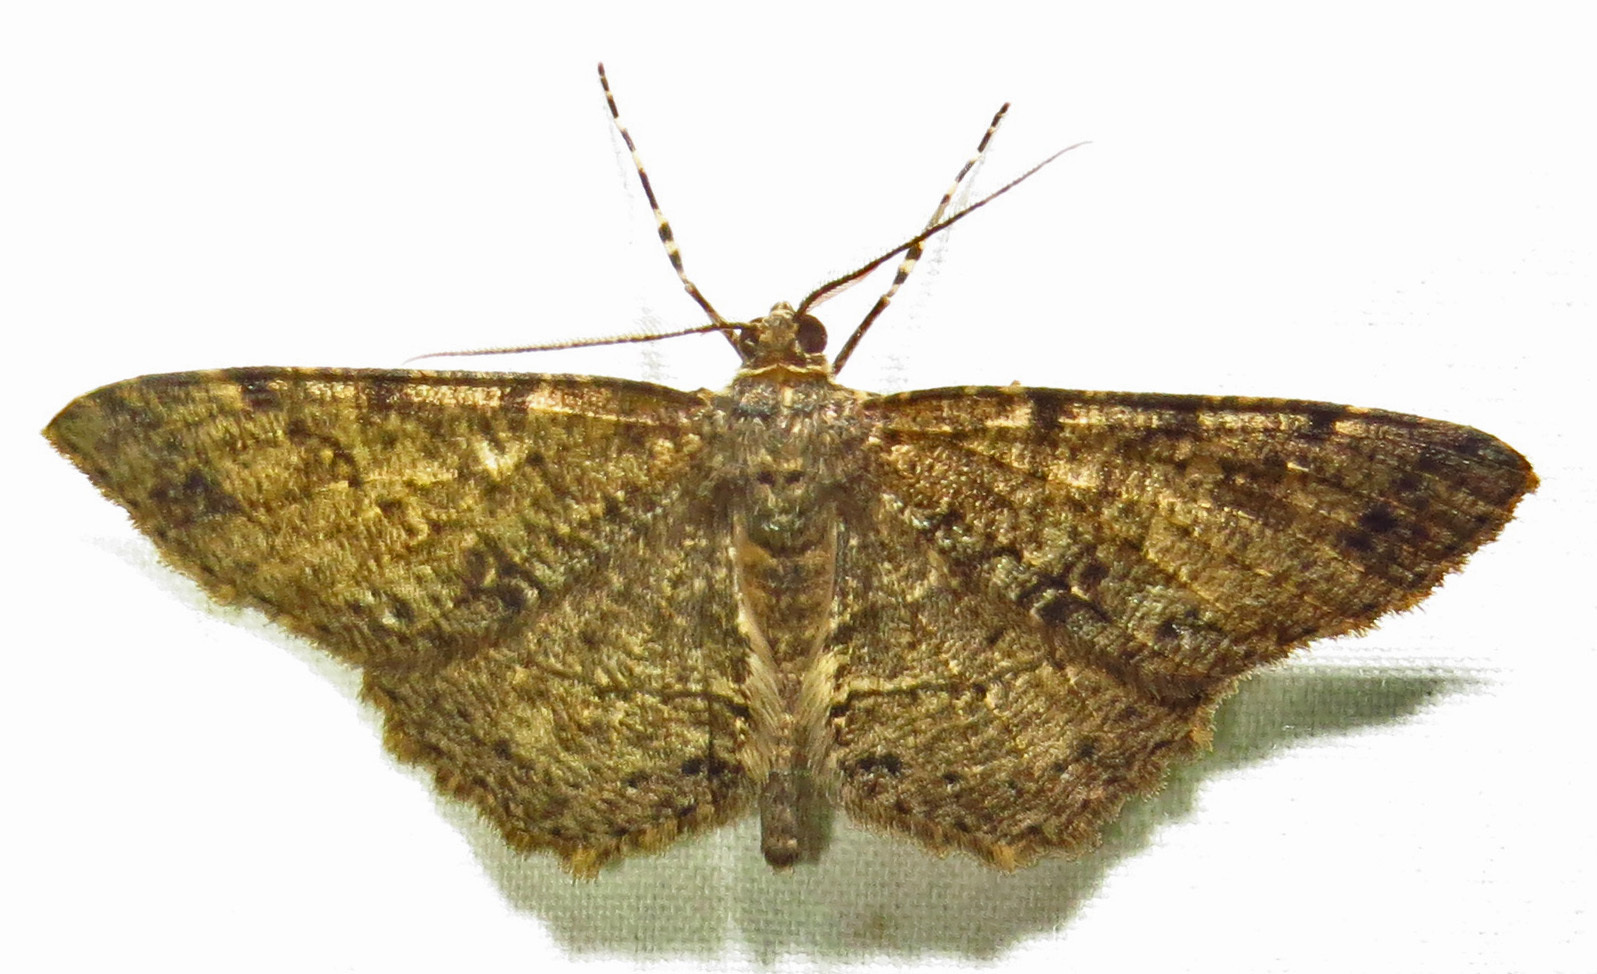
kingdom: Animalia
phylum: Arthropoda
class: Insecta
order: Lepidoptera
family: Geometridae
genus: Melanolophia
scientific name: Melanolophia canadaria
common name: Canadian melanolophia
